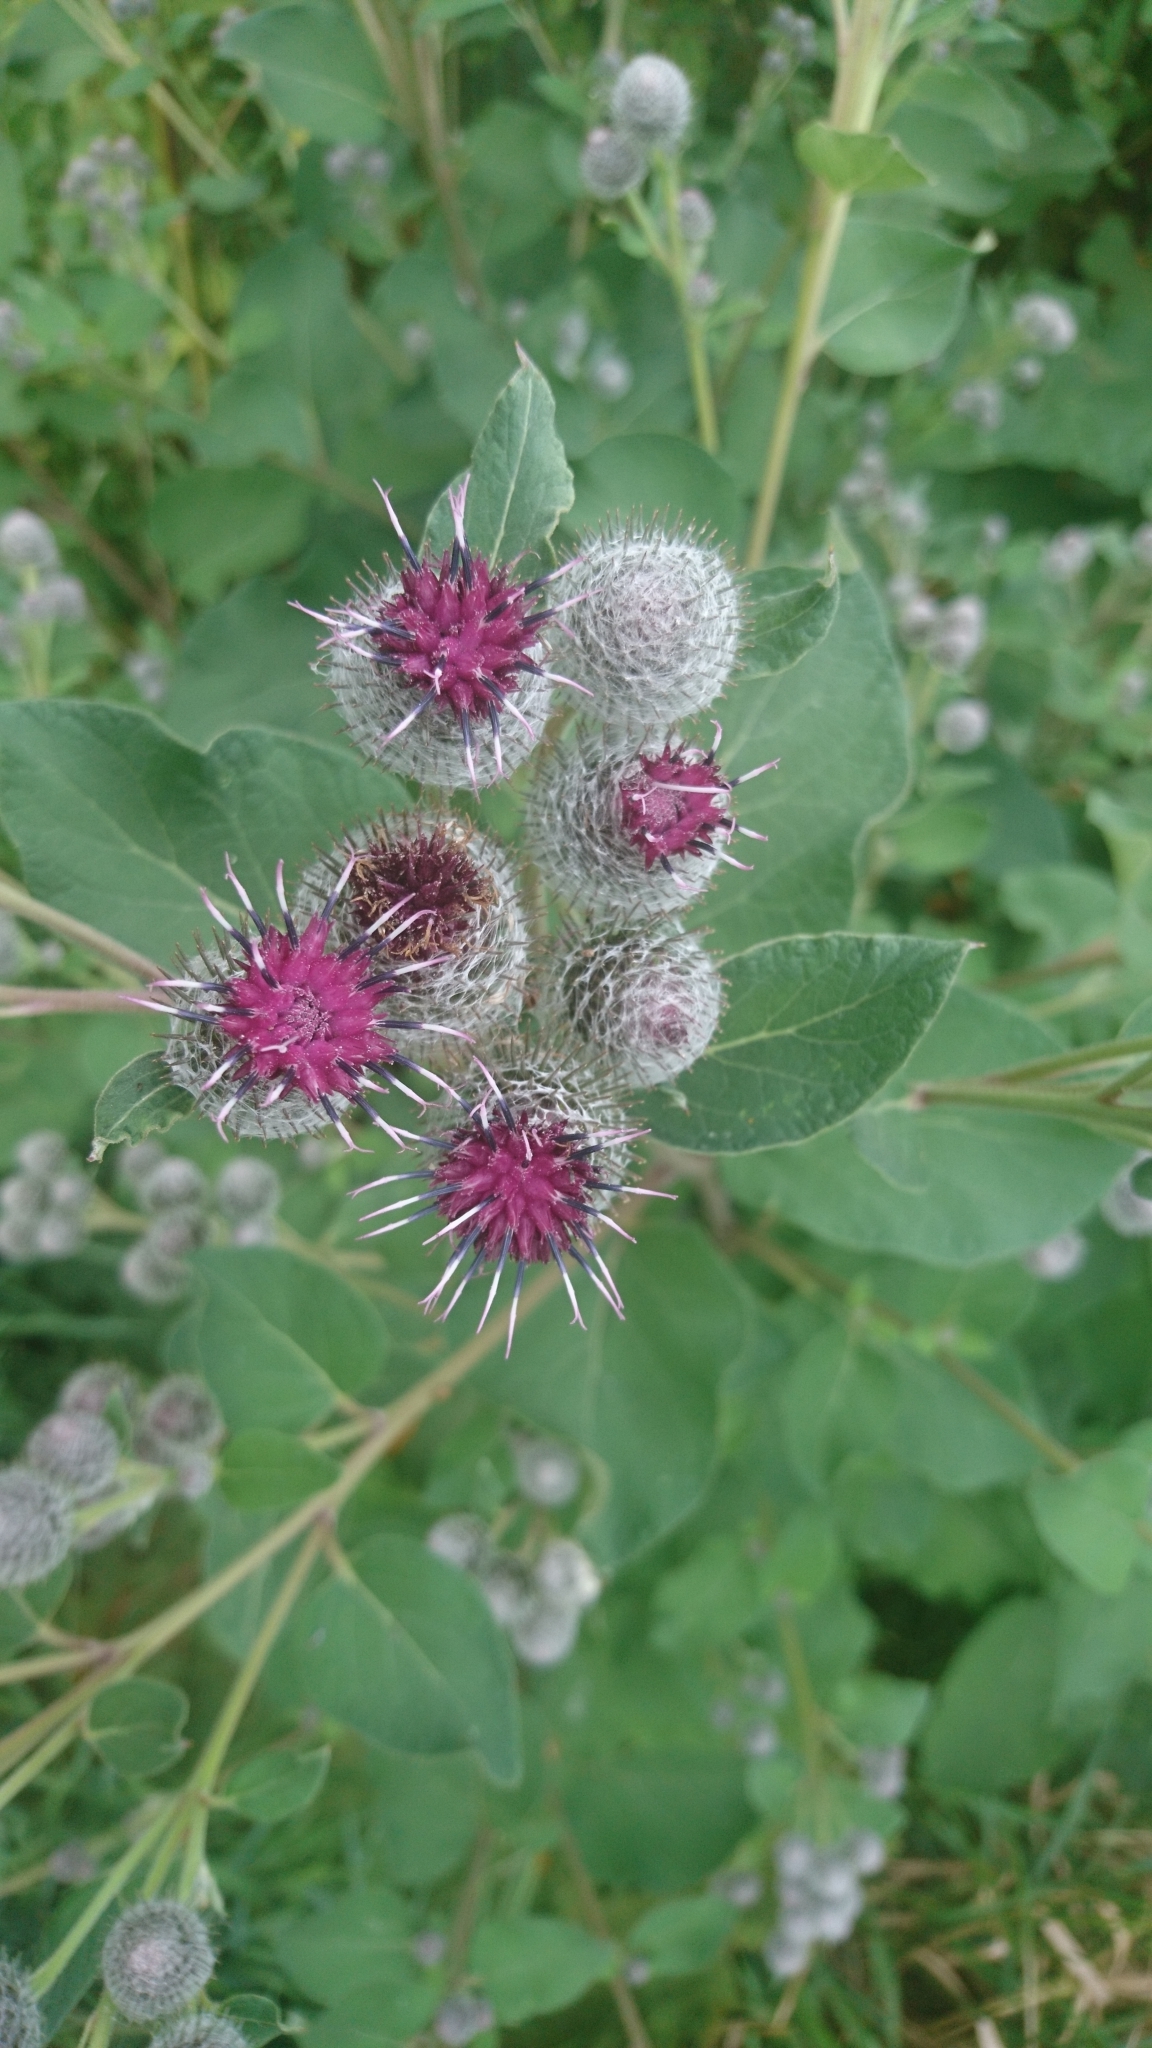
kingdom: Plantae
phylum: Tracheophyta
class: Magnoliopsida
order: Asterales
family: Asteraceae
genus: Arctium
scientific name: Arctium tomentosum
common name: Woolly burdock
